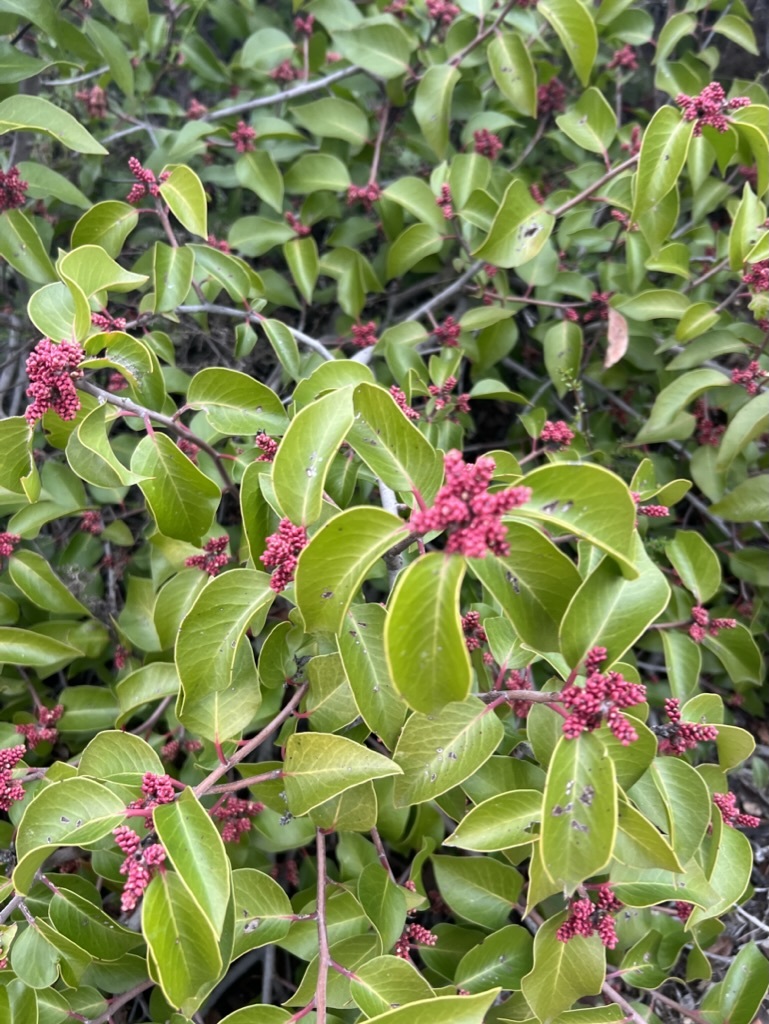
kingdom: Plantae
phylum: Tracheophyta
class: Magnoliopsida
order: Sapindales
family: Anacardiaceae
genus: Rhus
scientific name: Rhus ovata
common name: Sugar sumac
